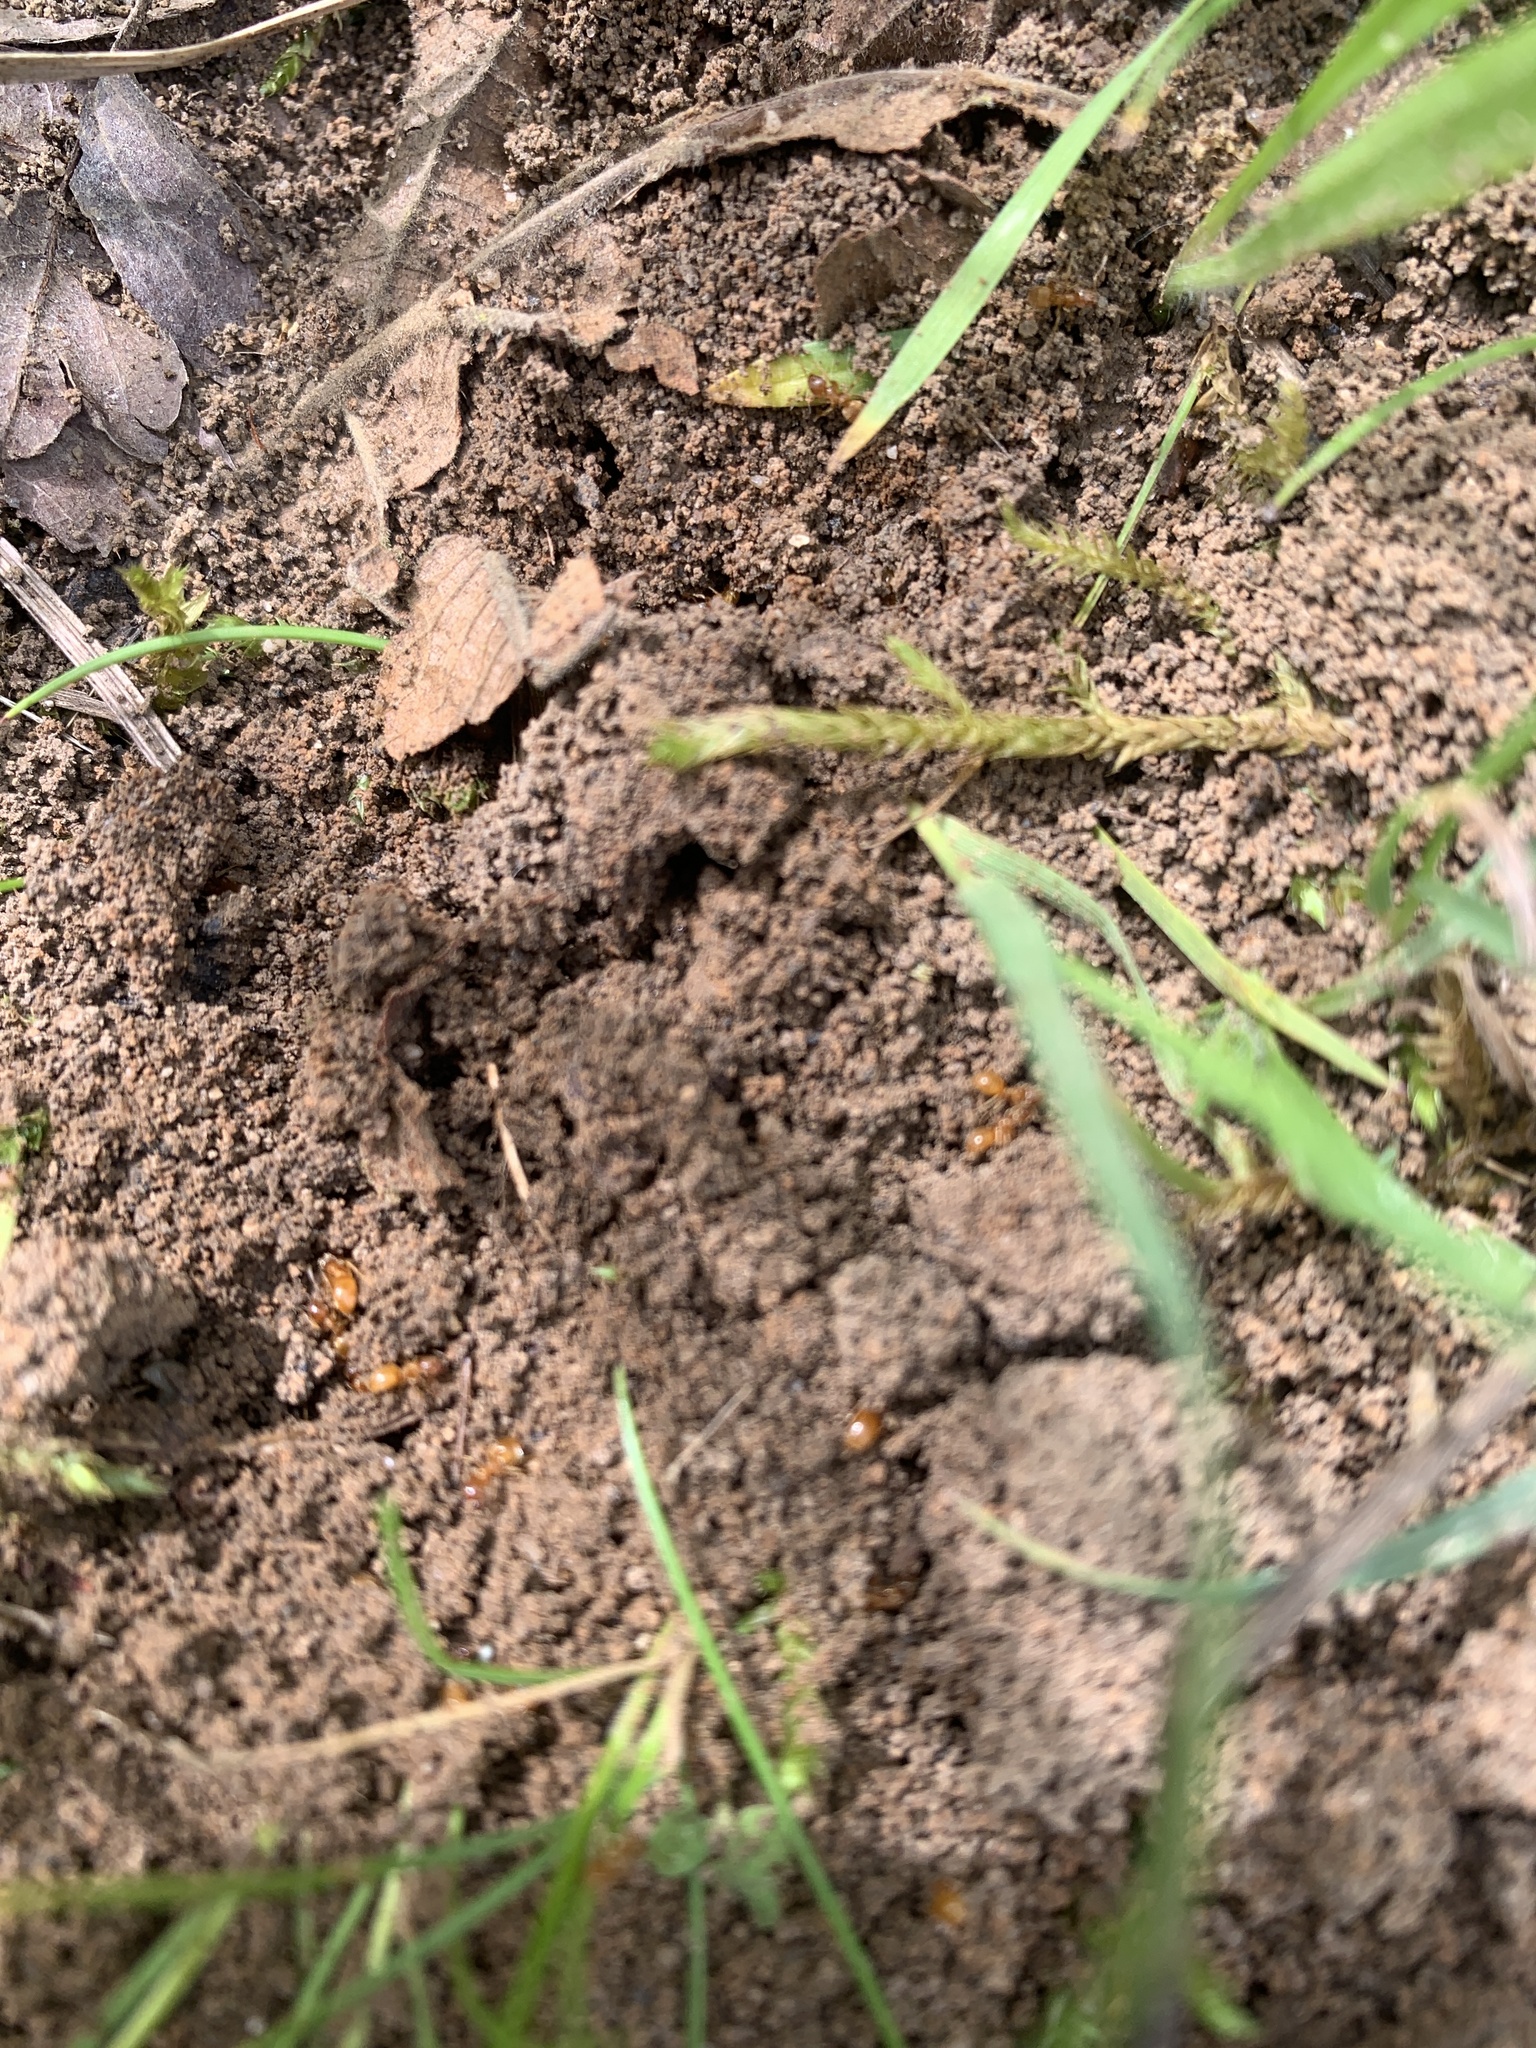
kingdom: Animalia
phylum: Arthropoda
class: Insecta
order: Hymenoptera
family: Formicidae
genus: Lasius
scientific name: Lasius flavus
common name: Blond field ant
